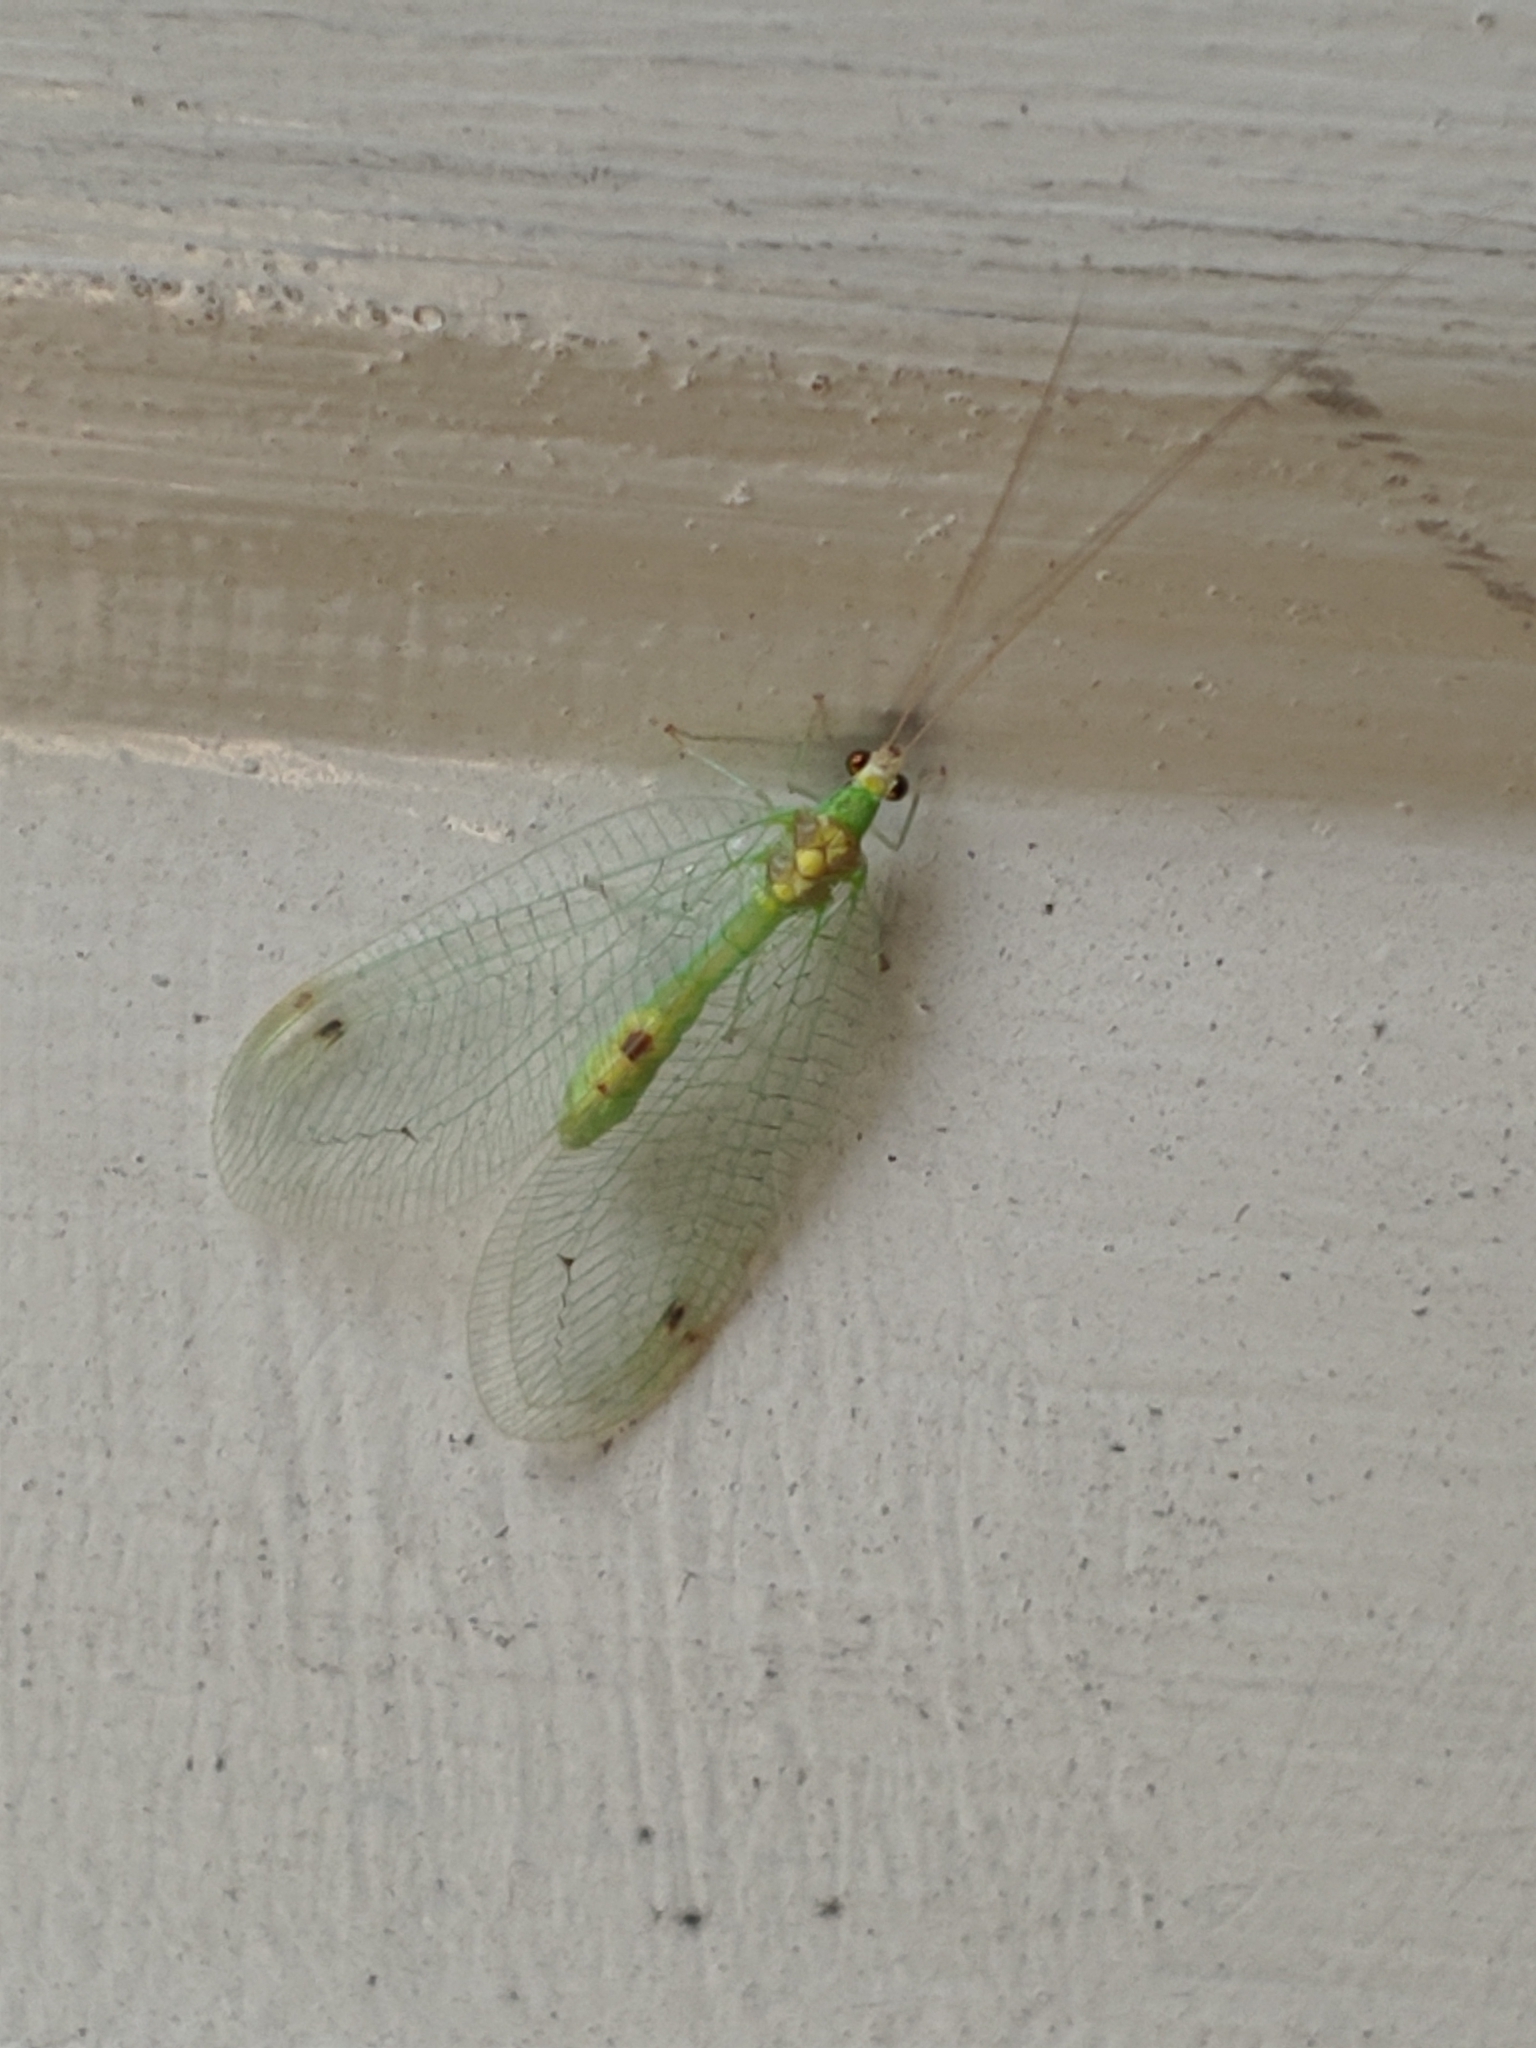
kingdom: Animalia
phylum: Arthropoda
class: Insecta
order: Neuroptera
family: Chrysopidae
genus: Leucochrysa
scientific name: Leucochrysa insularis
